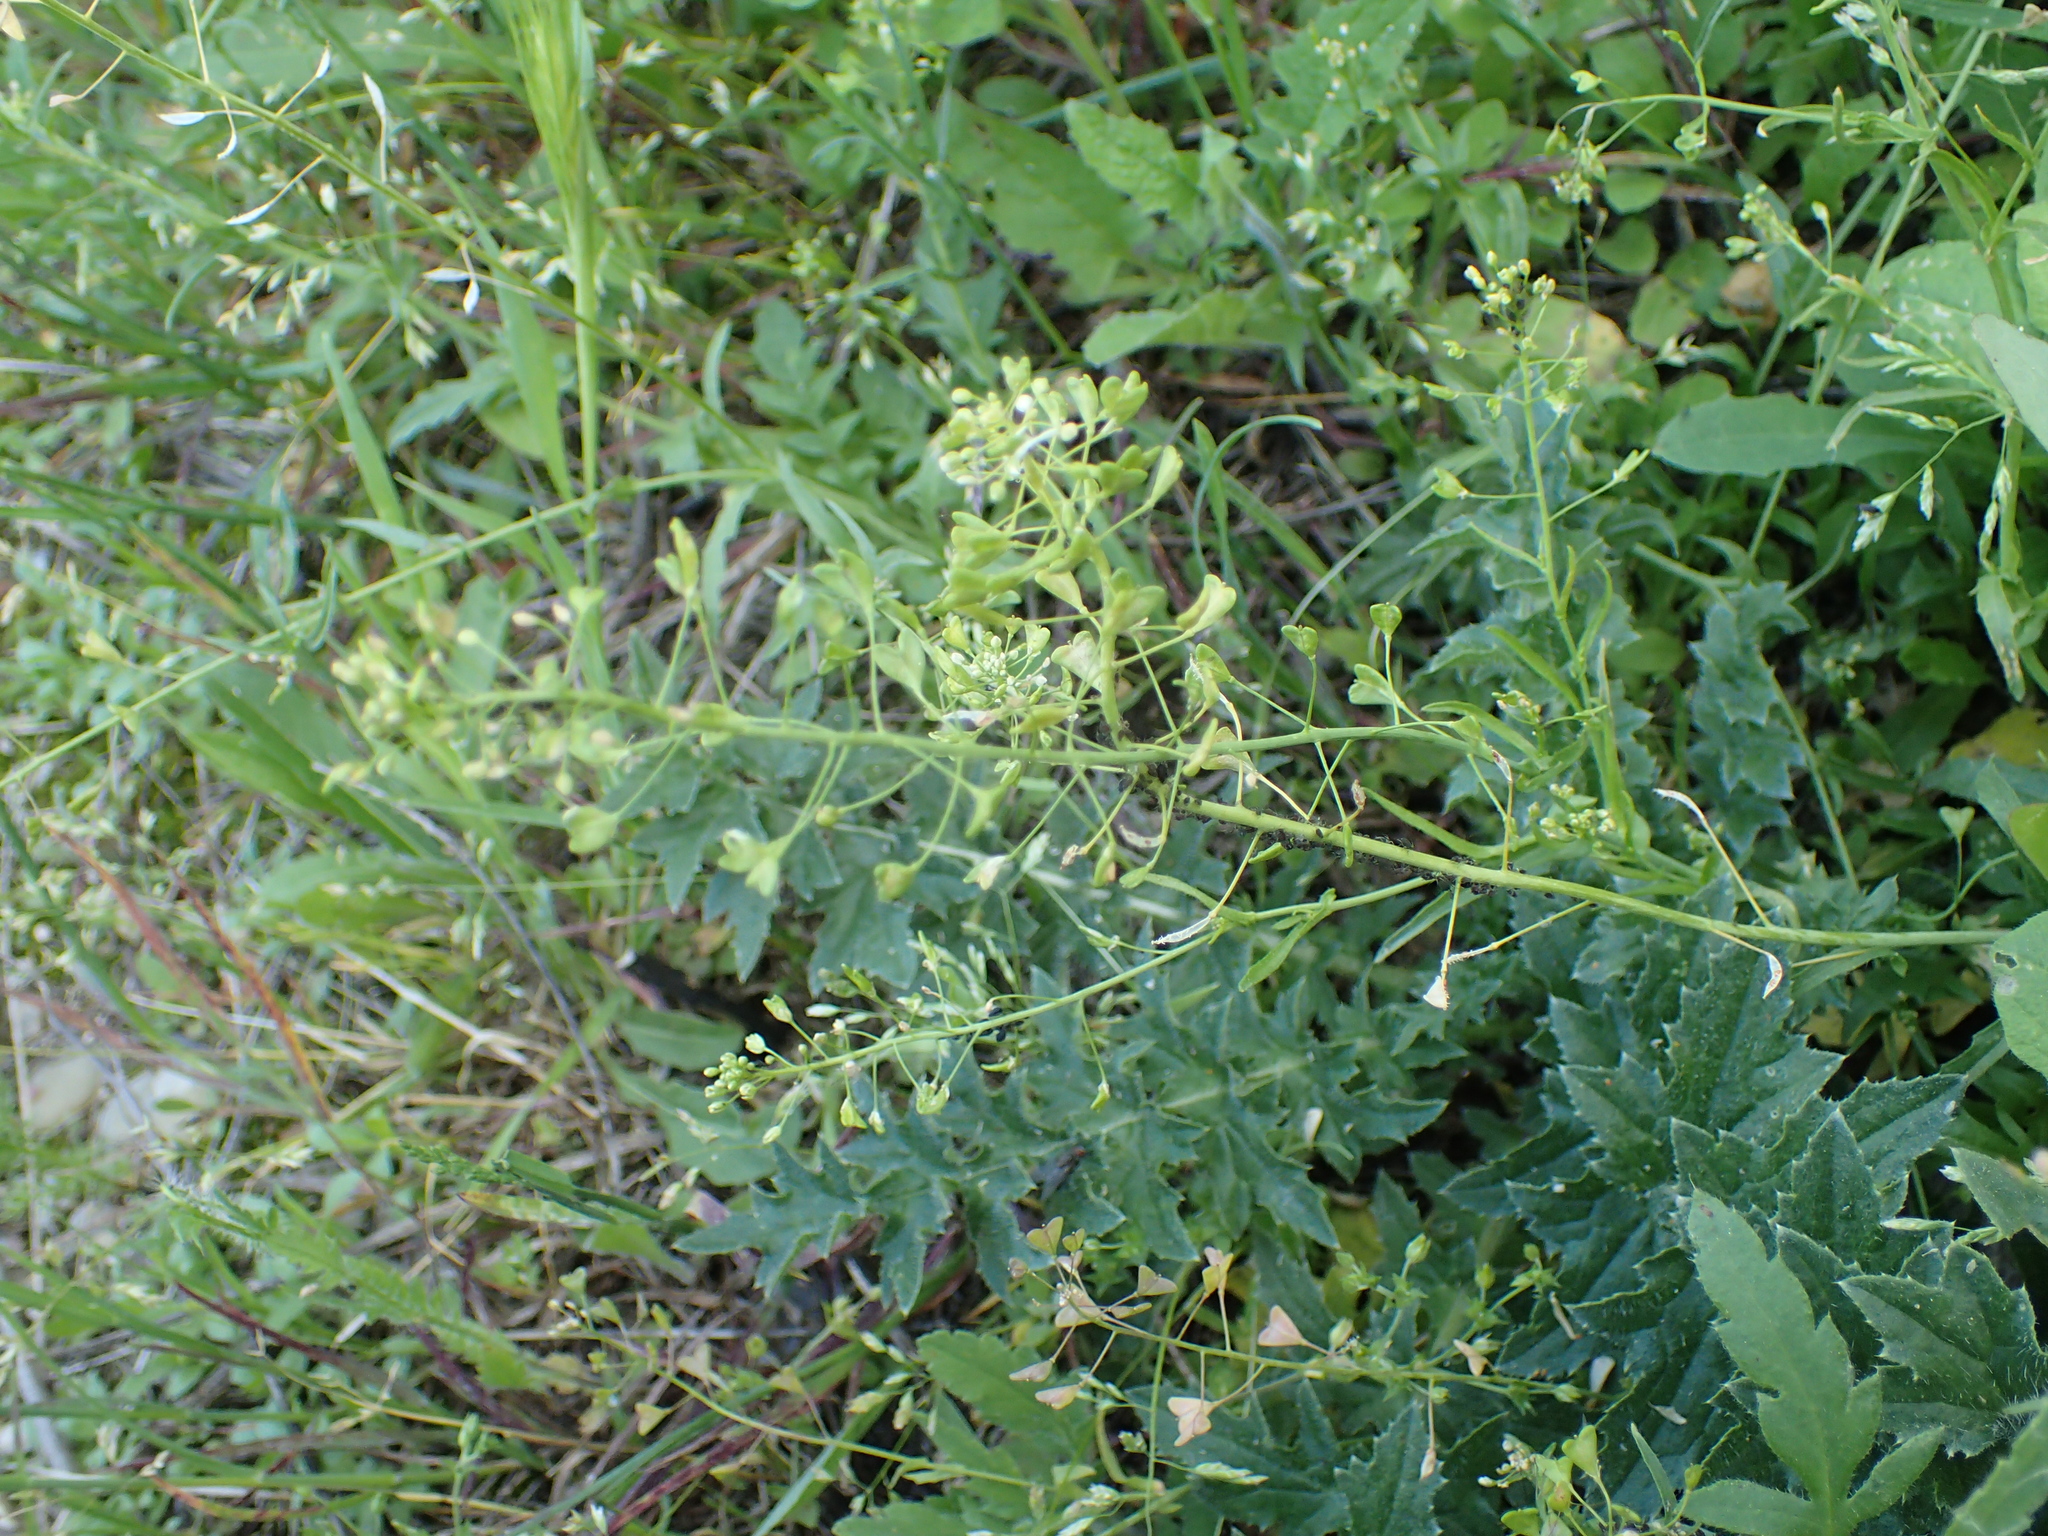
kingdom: Plantae
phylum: Tracheophyta
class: Magnoliopsida
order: Brassicales
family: Brassicaceae
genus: Capsella
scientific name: Capsella bursa-pastoris
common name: Shepherd's purse
